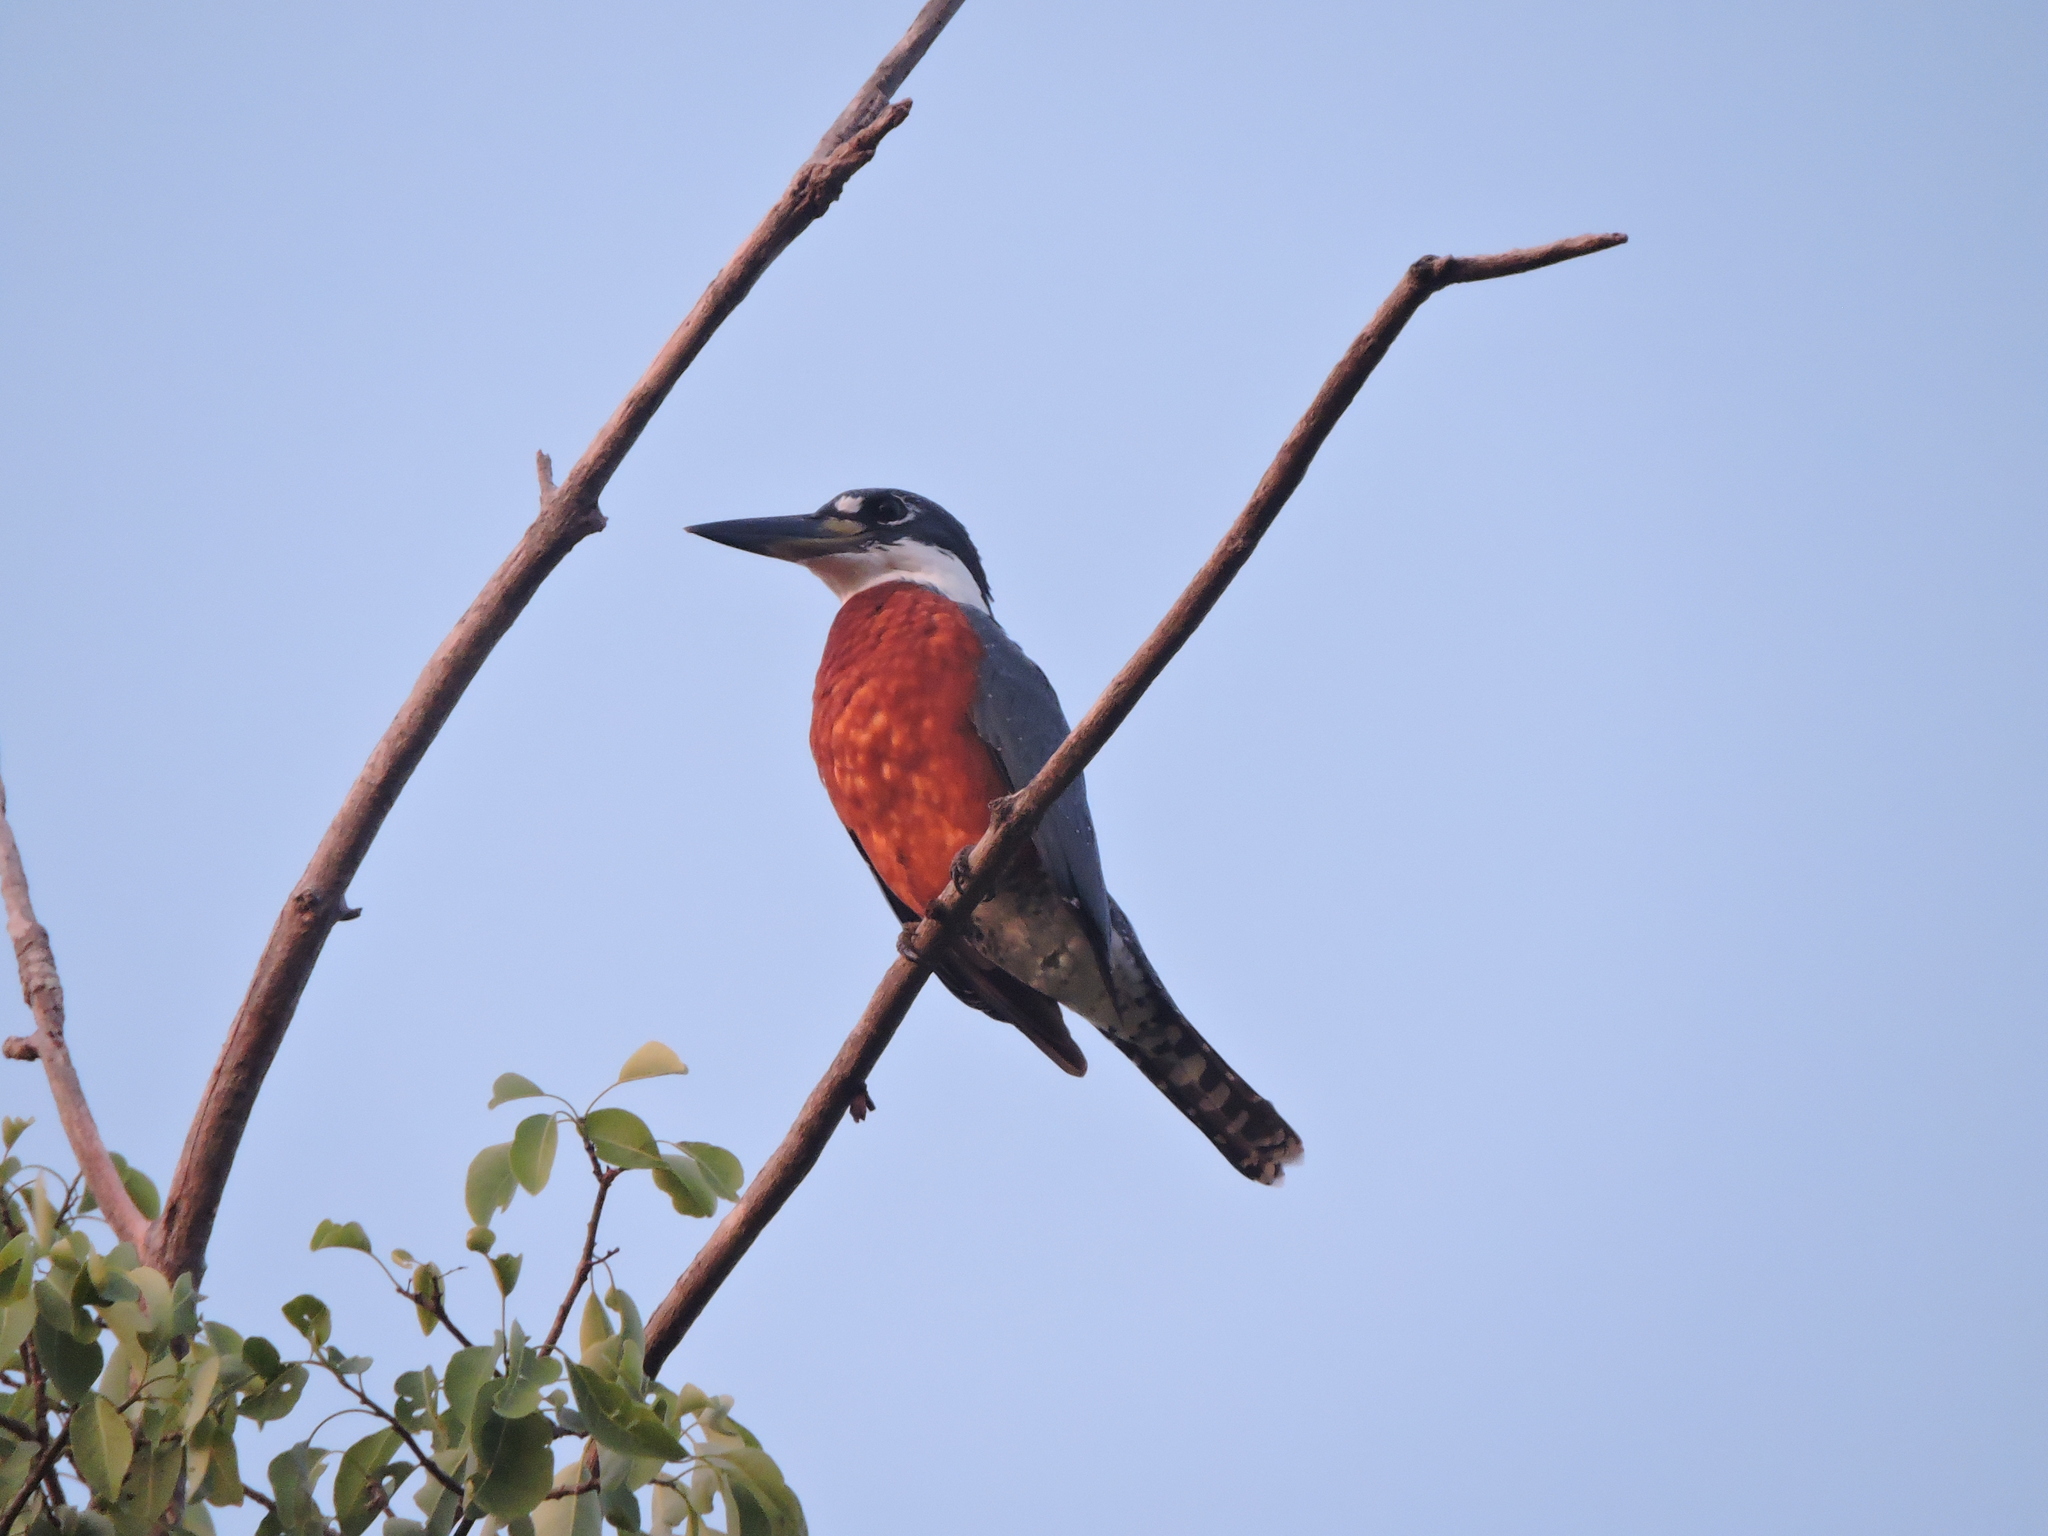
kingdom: Animalia
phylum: Chordata
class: Aves
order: Coraciiformes
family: Alcedinidae
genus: Megaceryle
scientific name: Megaceryle torquata
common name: Ringed kingfisher
